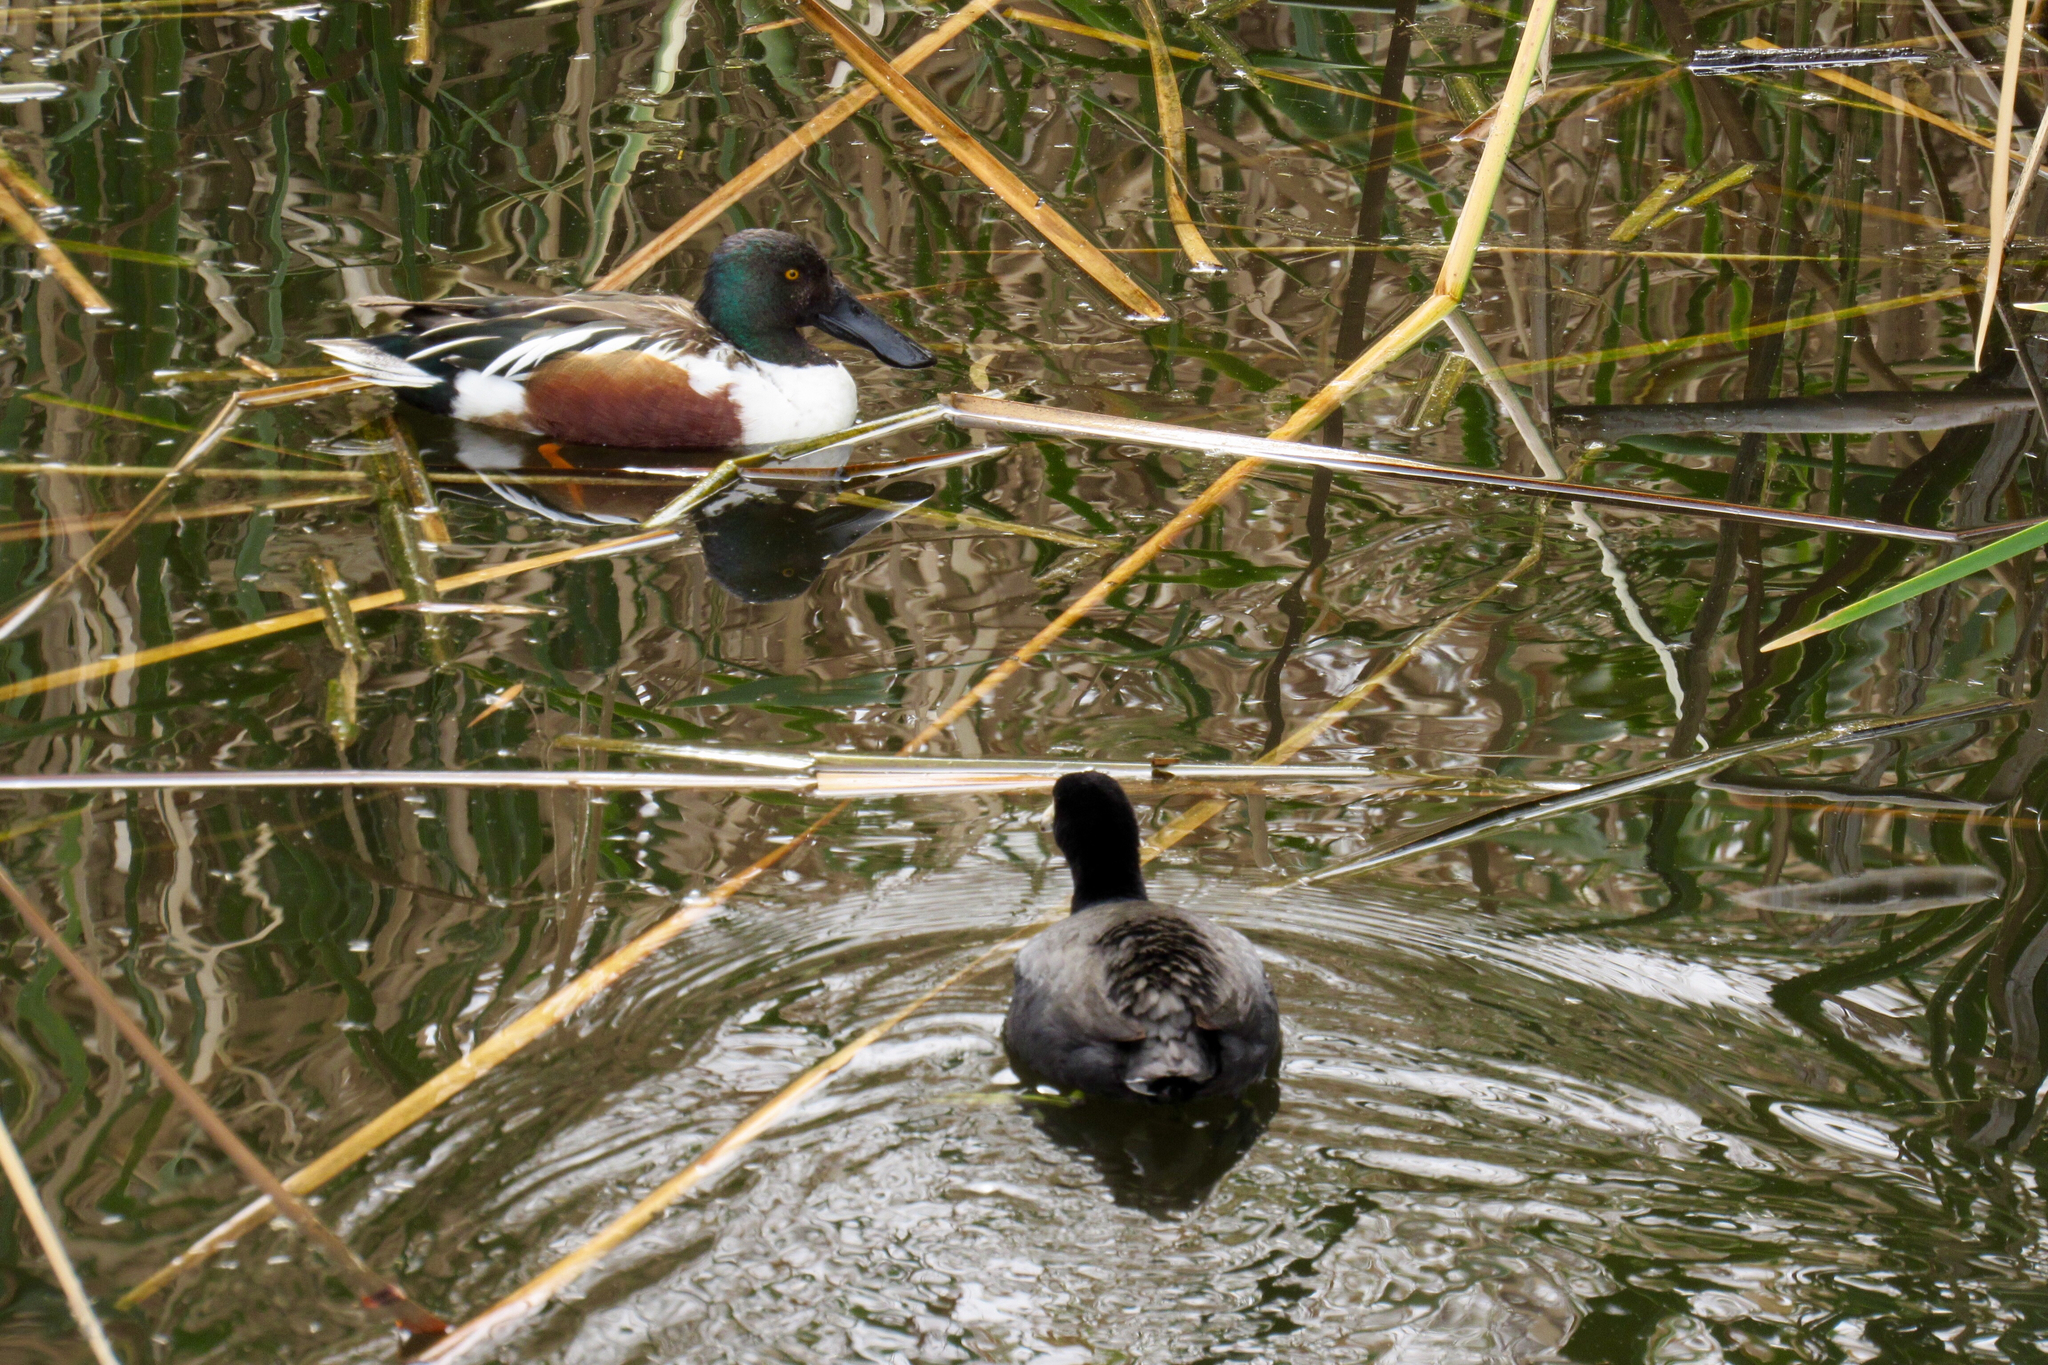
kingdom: Animalia
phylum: Chordata
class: Aves
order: Anseriformes
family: Anatidae
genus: Spatula
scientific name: Spatula clypeata
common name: Northern shoveler
